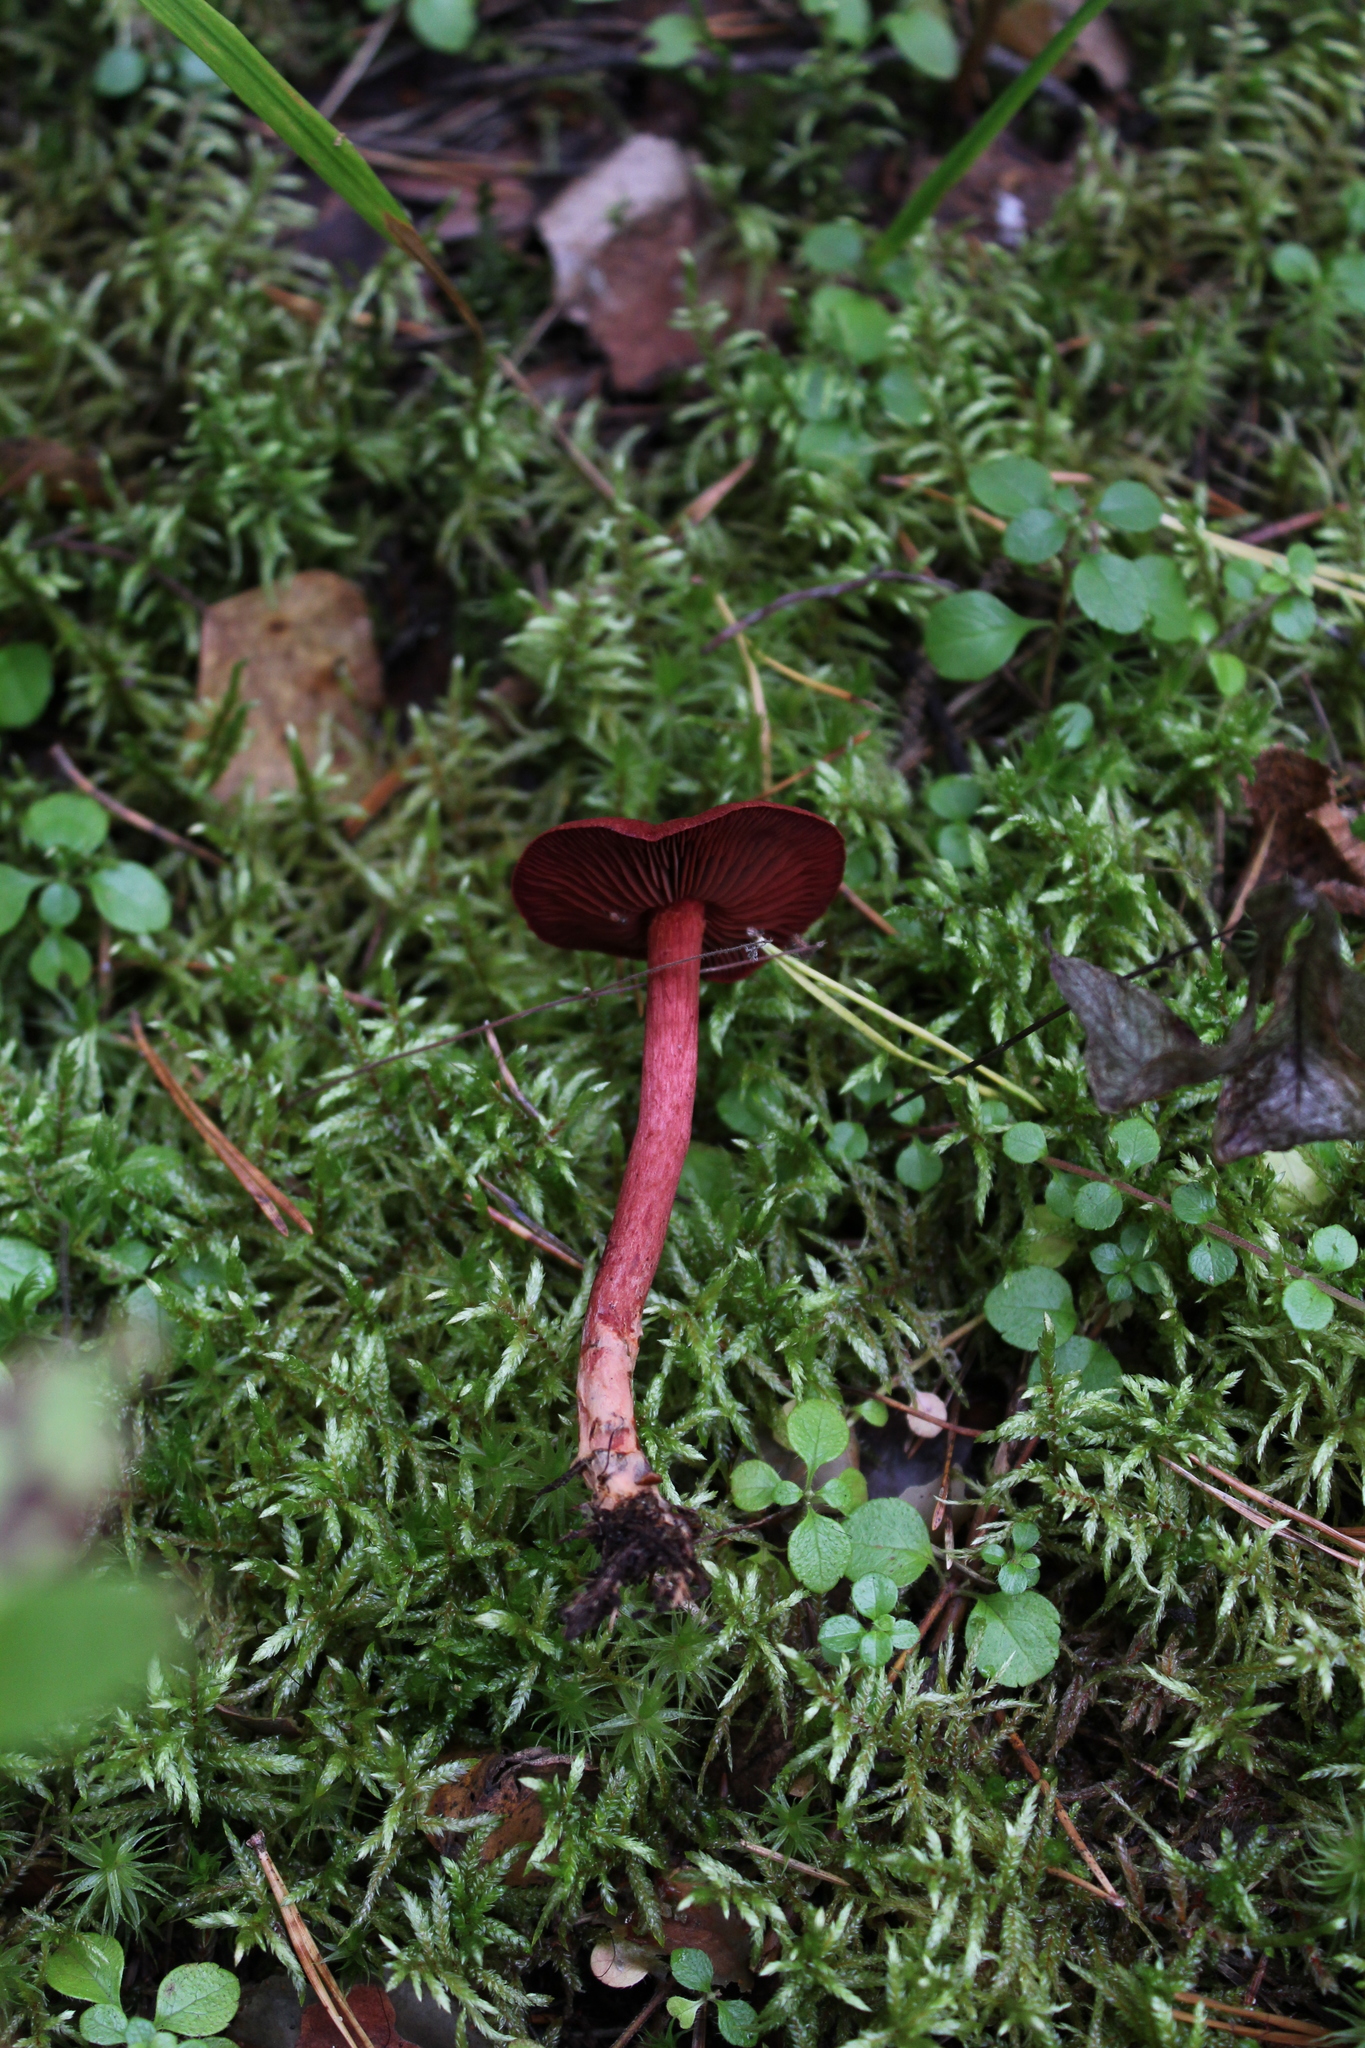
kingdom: Plantae
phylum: Tracheophyta
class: Magnoliopsida
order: Dipsacales
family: Caprifoliaceae
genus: Linnaea
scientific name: Linnaea borealis
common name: Twinflower
